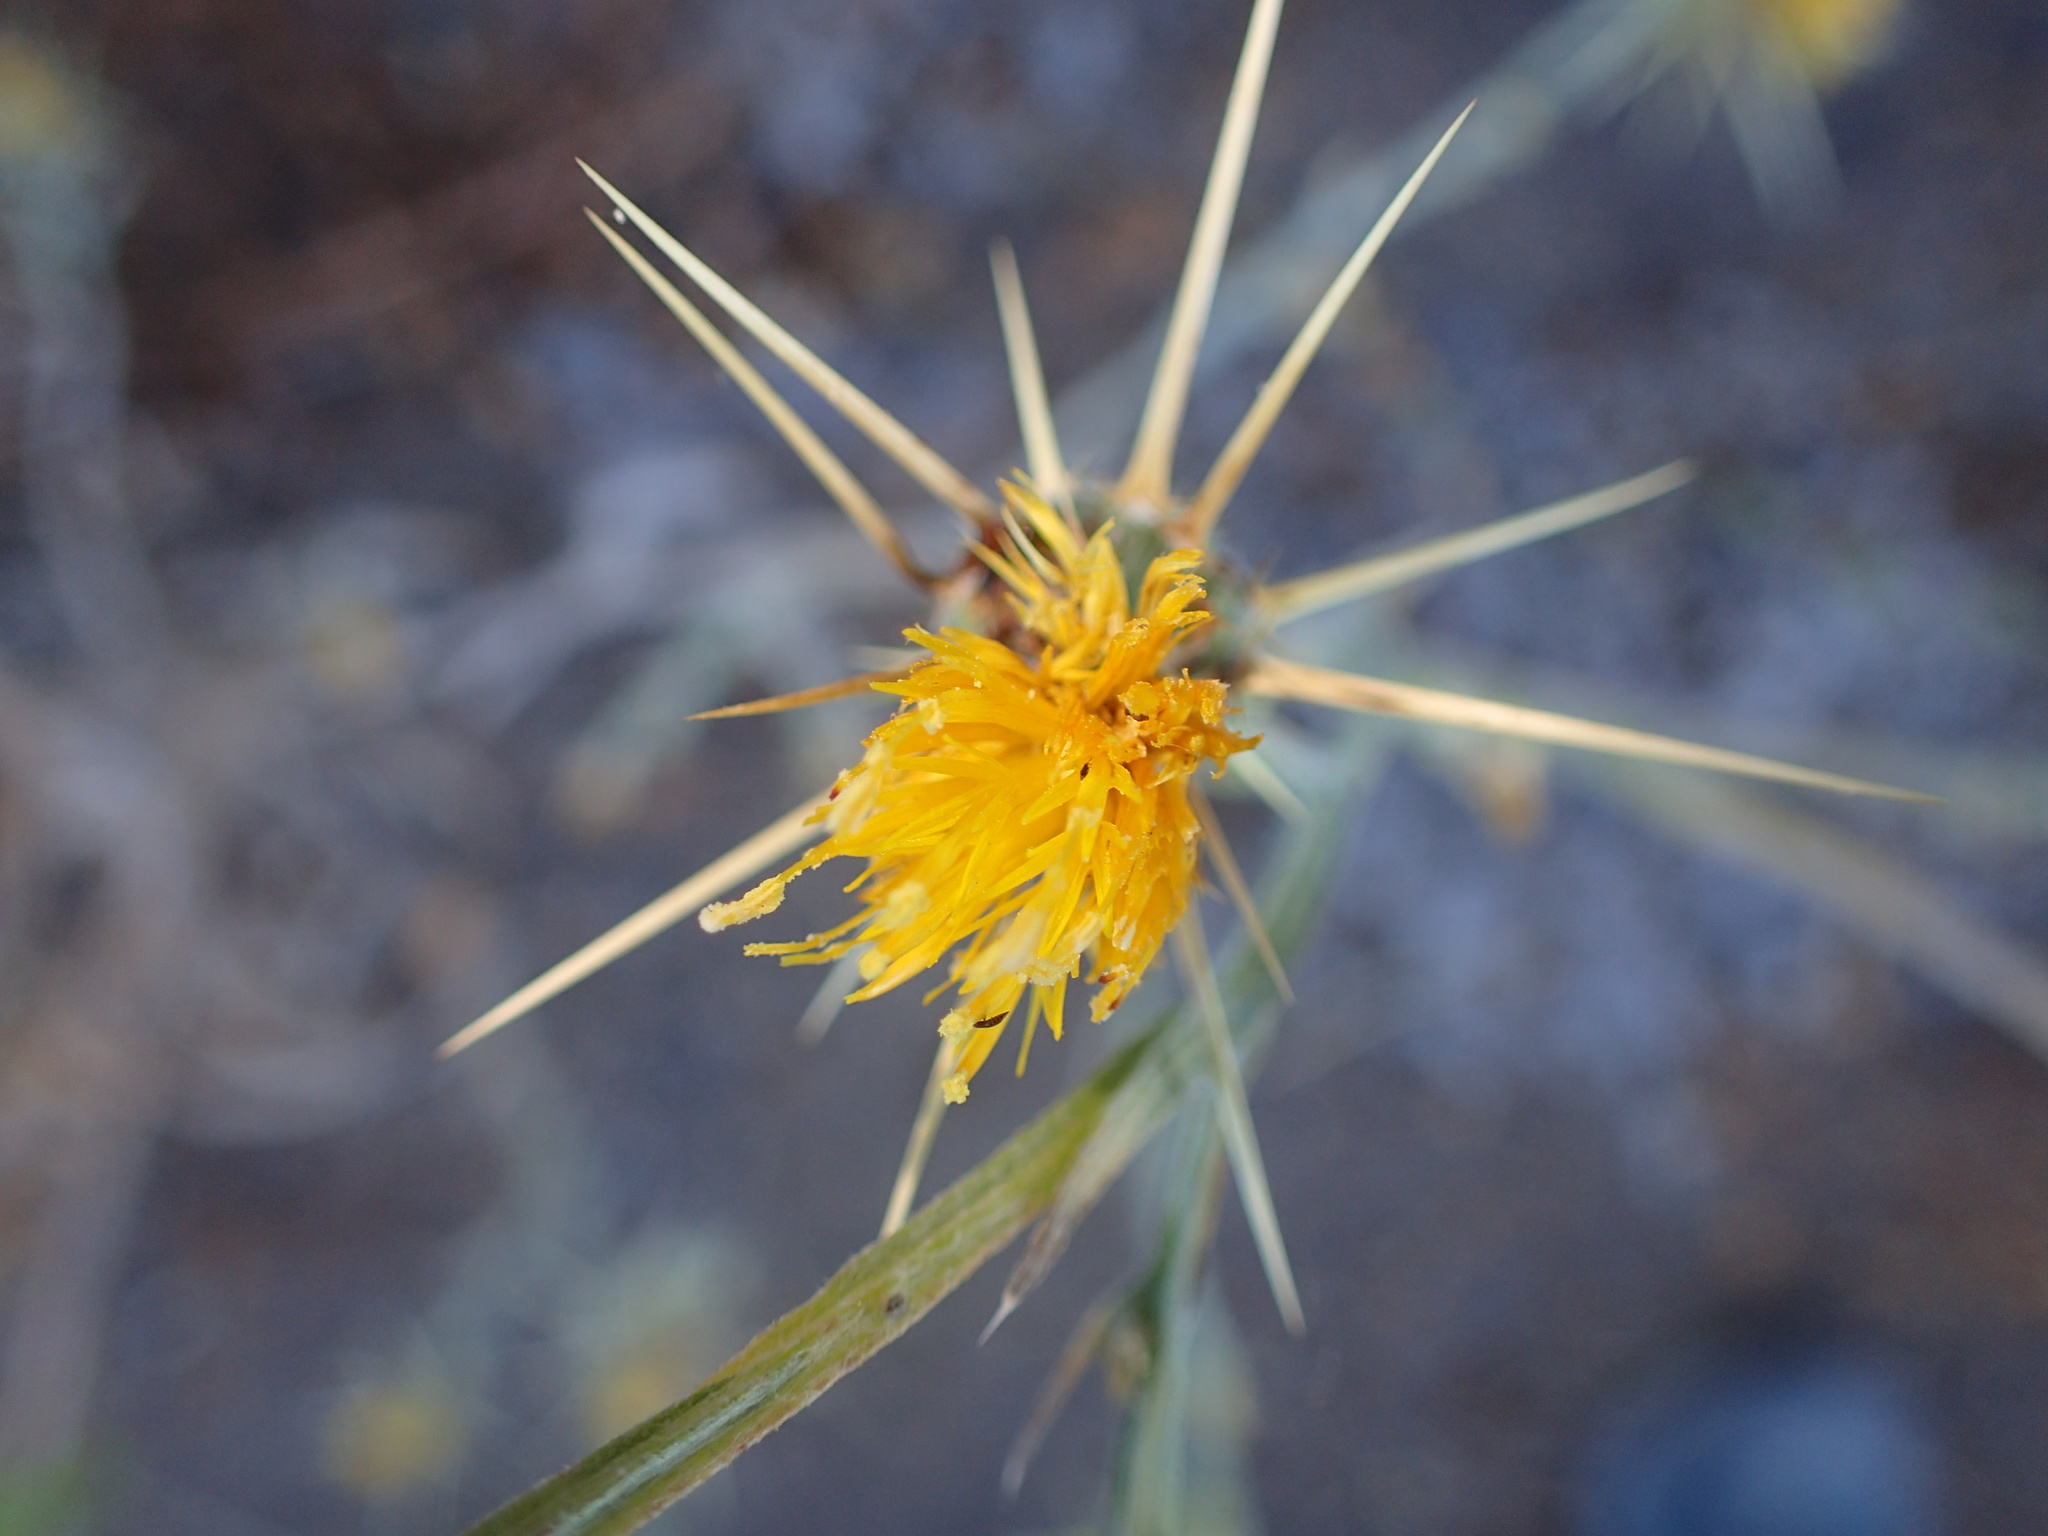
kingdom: Plantae
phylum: Tracheophyta
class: Magnoliopsida
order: Asterales
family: Asteraceae
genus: Centaurea
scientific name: Centaurea solstitialis
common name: Yellow star-thistle
